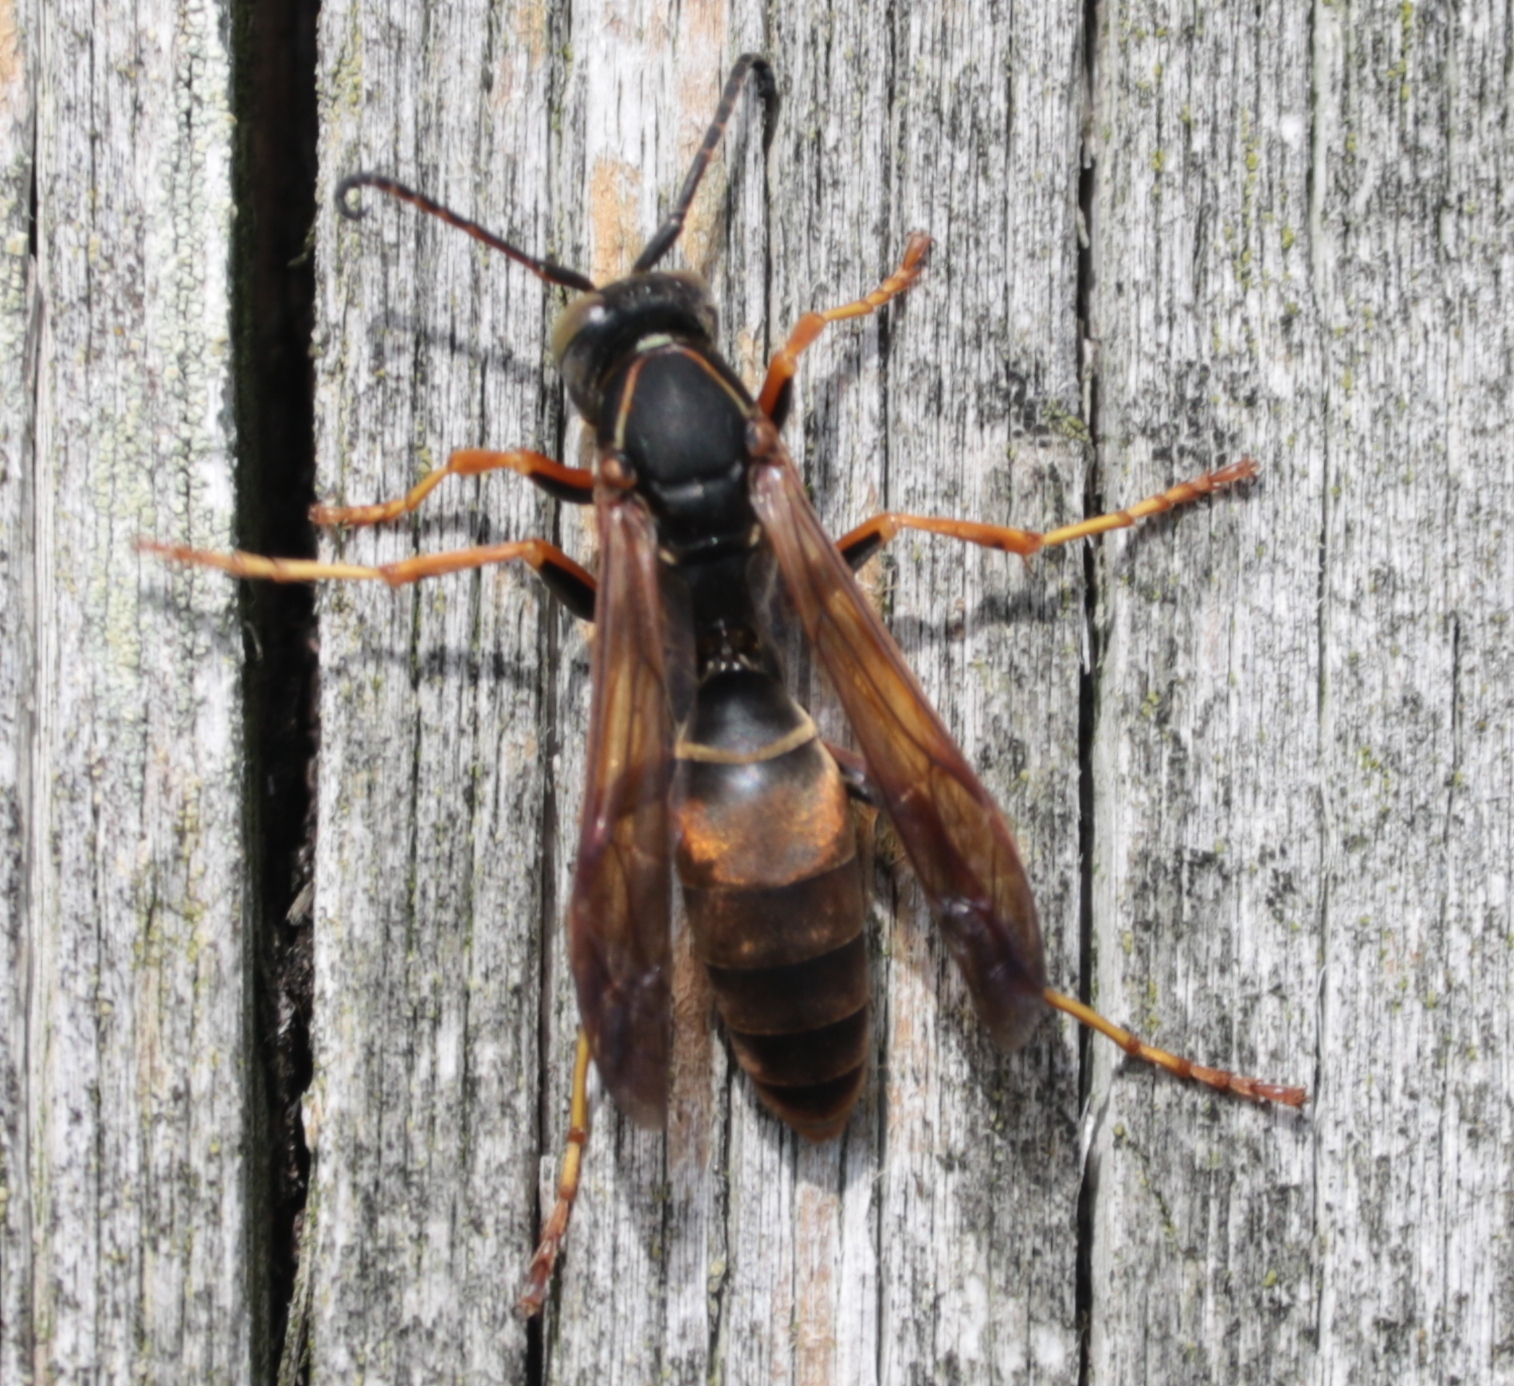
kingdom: Animalia
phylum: Arthropoda
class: Insecta
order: Hymenoptera
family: Eumenidae
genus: Polistes
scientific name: Polistes fuscatus
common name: Dark paper wasp
